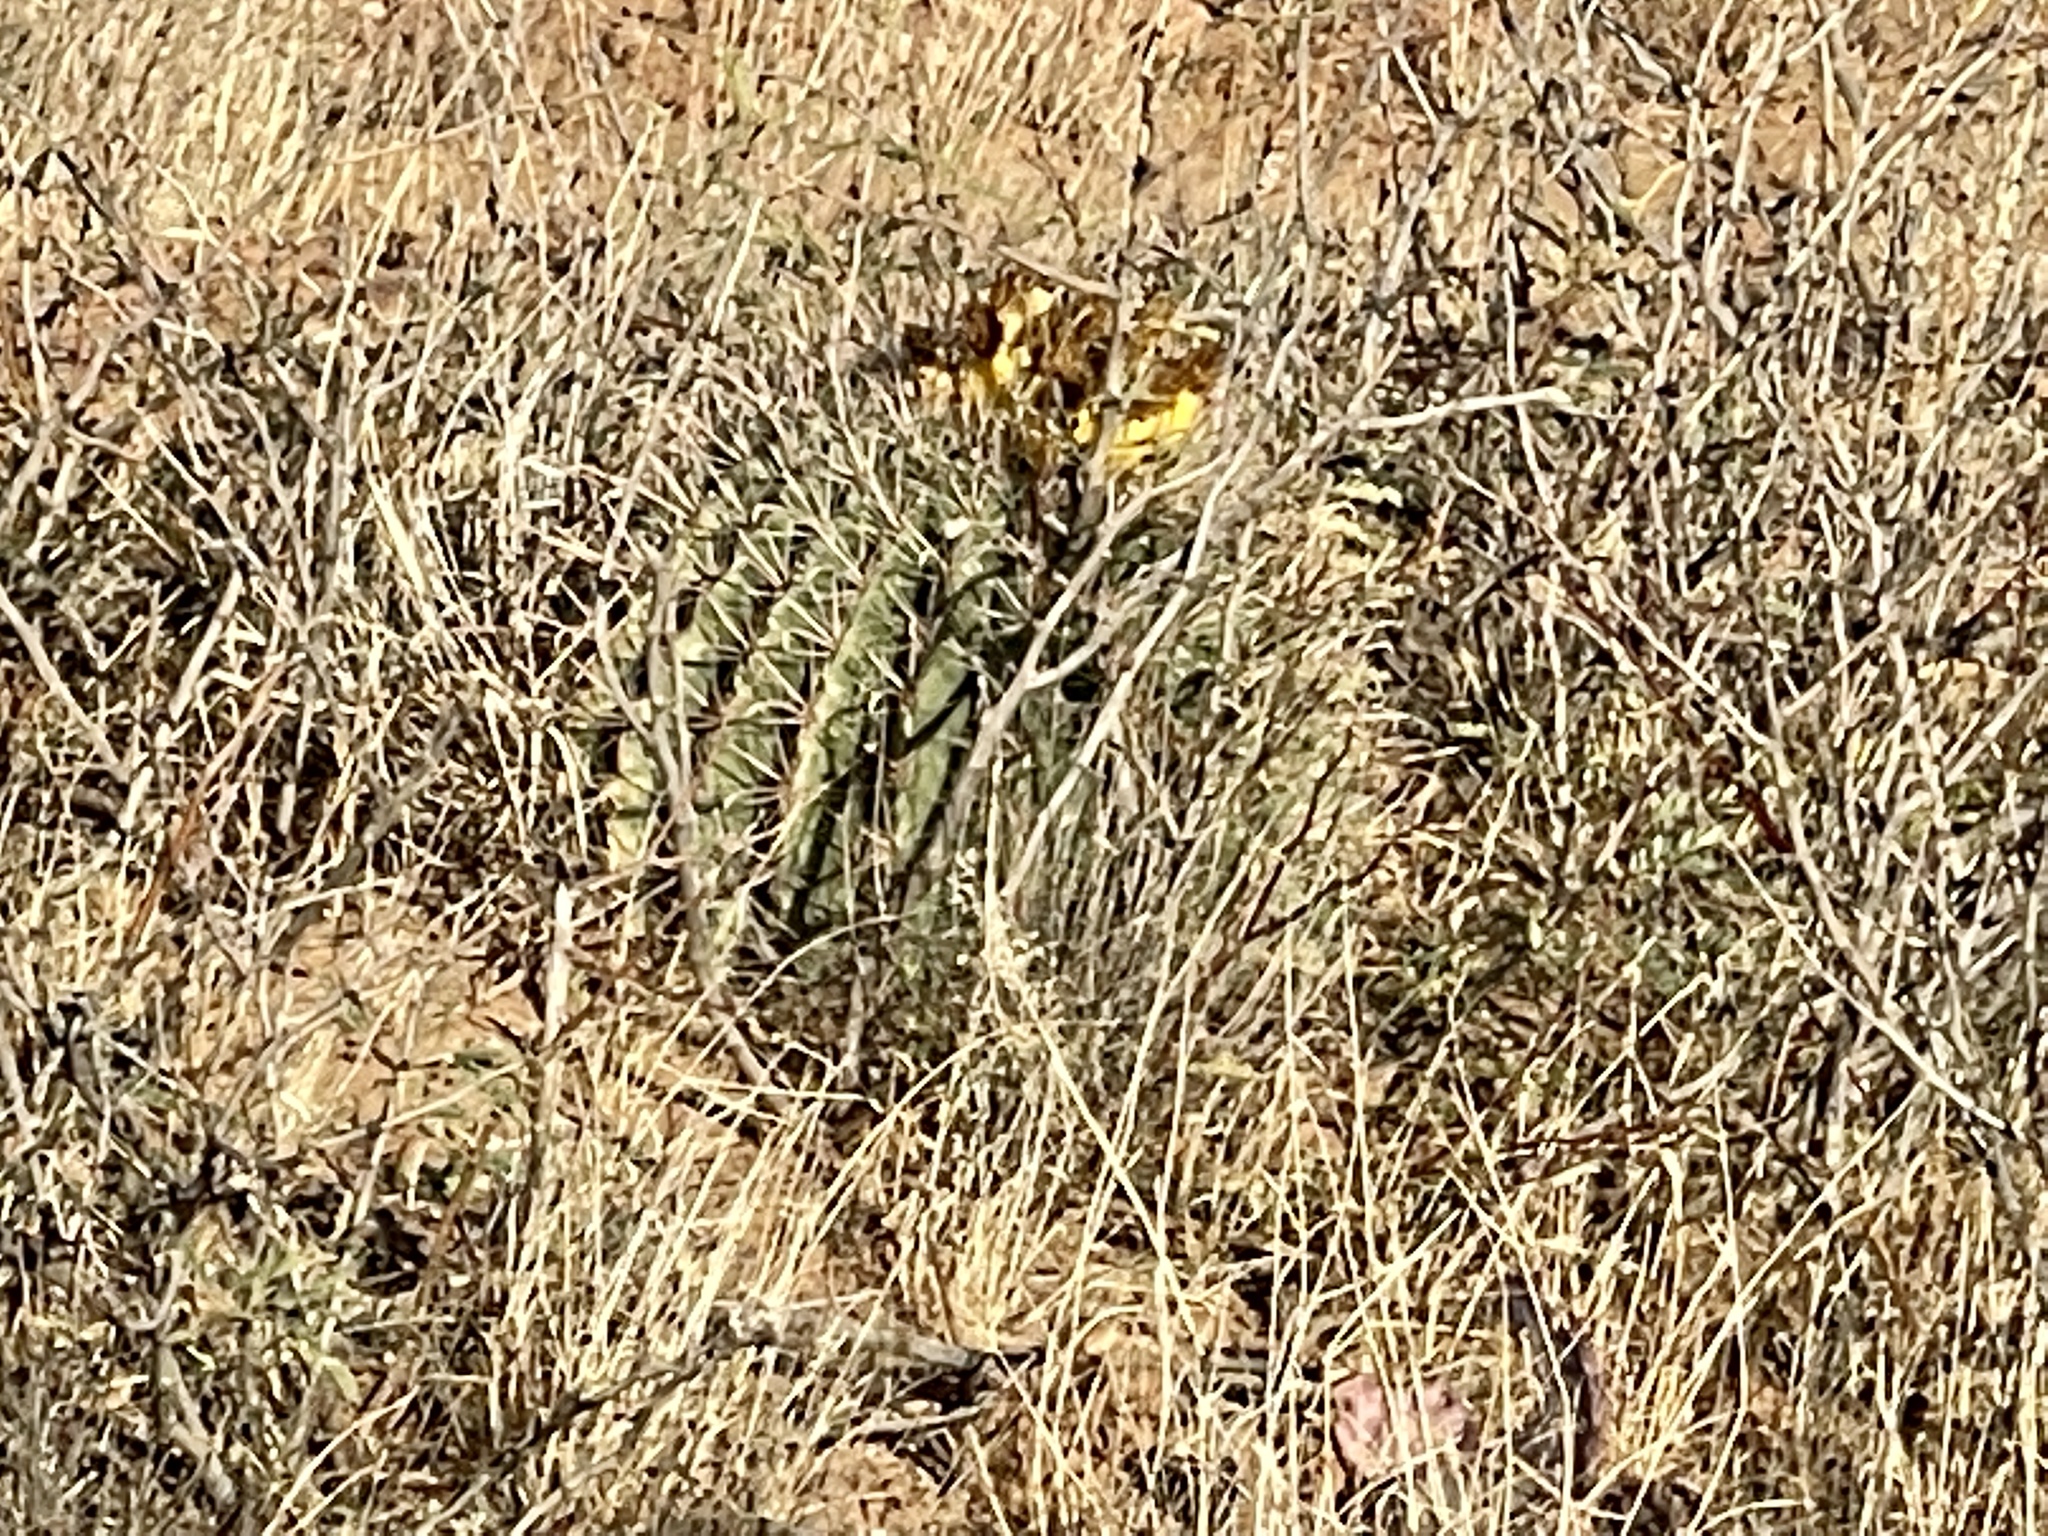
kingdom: Plantae
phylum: Tracheophyta
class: Magnoliopsida
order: Caryophyllales
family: Cactaceae
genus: Ferocactus
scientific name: Ferocactus wislizeni
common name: Candy barrel cactus
